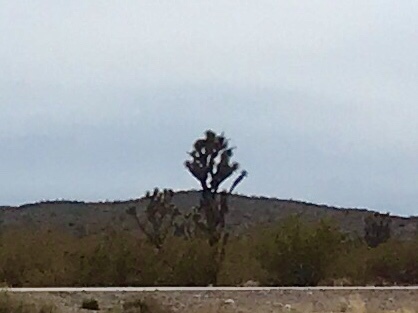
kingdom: Plantae
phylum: Tracheophyta
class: Liliopsida
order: Asparagales
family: Asparagaceae
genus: Yucca
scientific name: Yucca brevifolia
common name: Joshua tree
